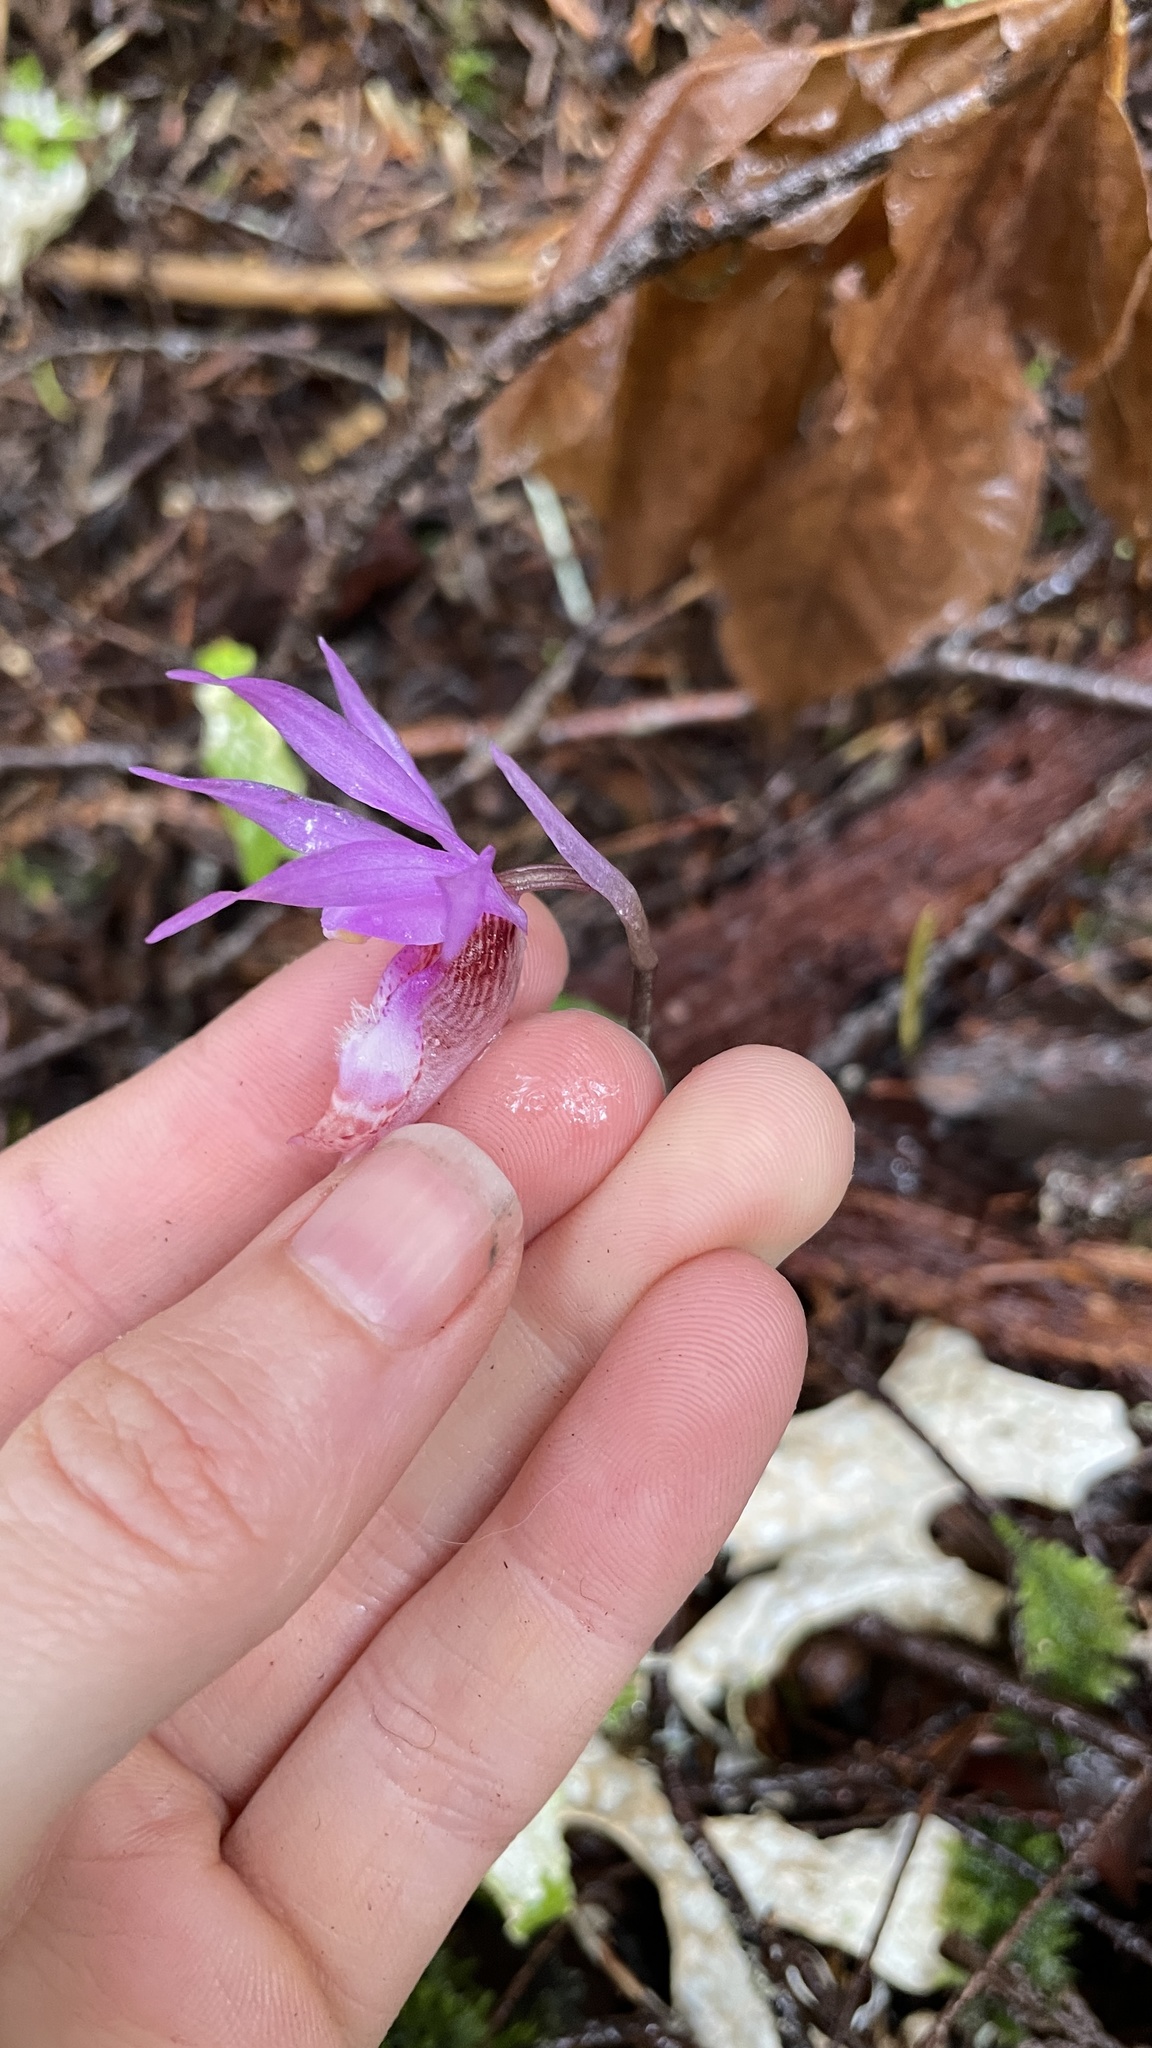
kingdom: Plantae
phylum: Tracheophyta
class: Liliopsida
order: Asparagales
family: Orchidaceae
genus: Calypso
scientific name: Calypso bulbosa
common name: Calypso
